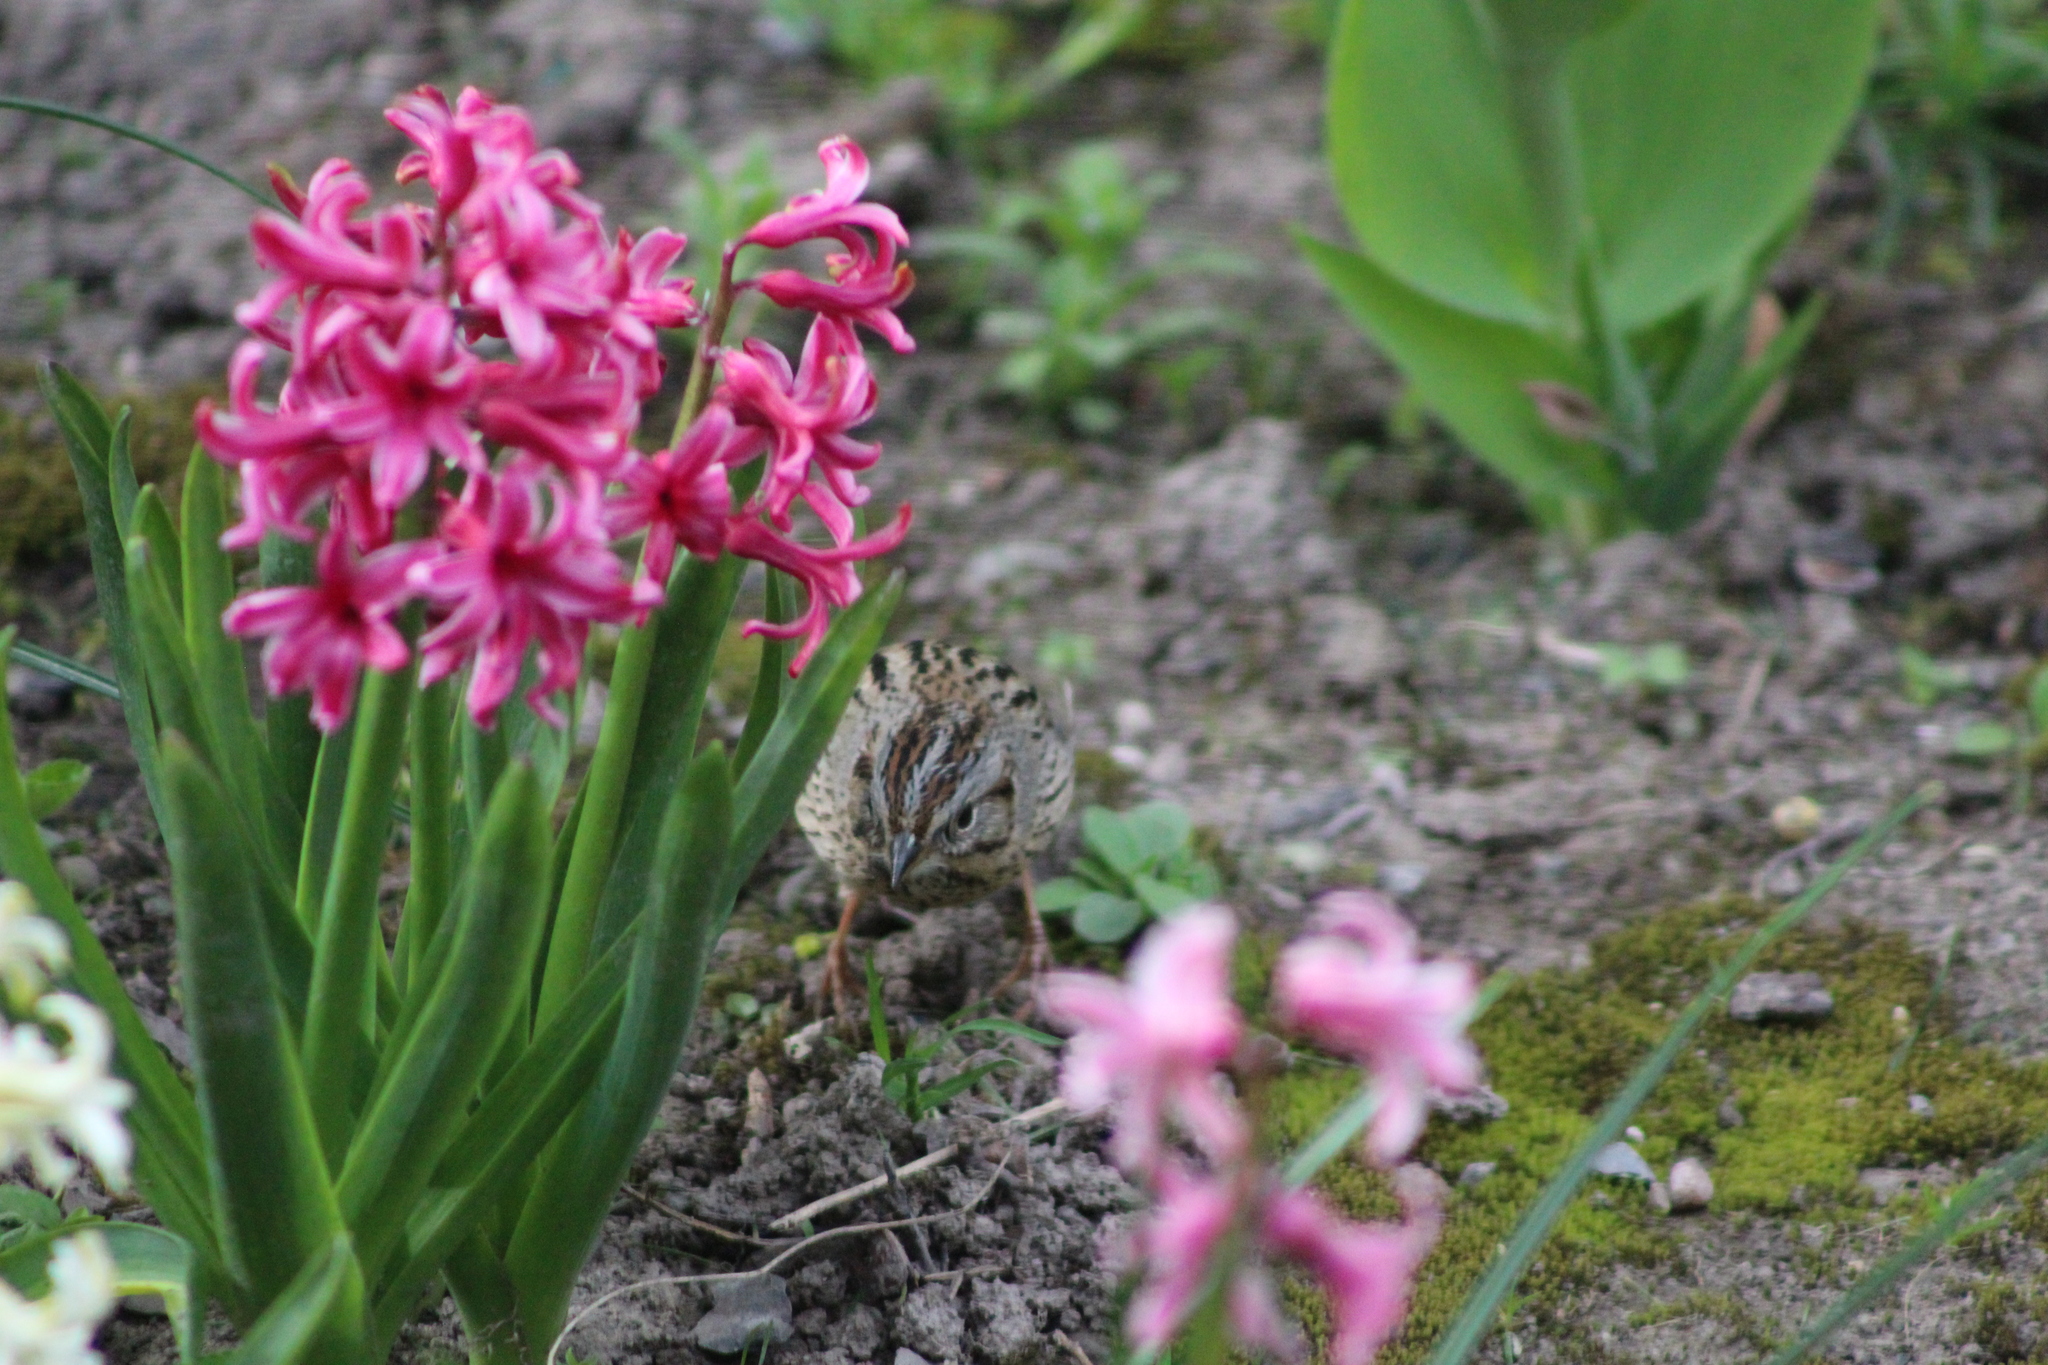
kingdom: Animalia
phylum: Chordata
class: Aves
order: Passeriformes
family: Passerellidae
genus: Melospiza
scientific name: Melospiza lincolnii
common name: Lincoln's sparrow
